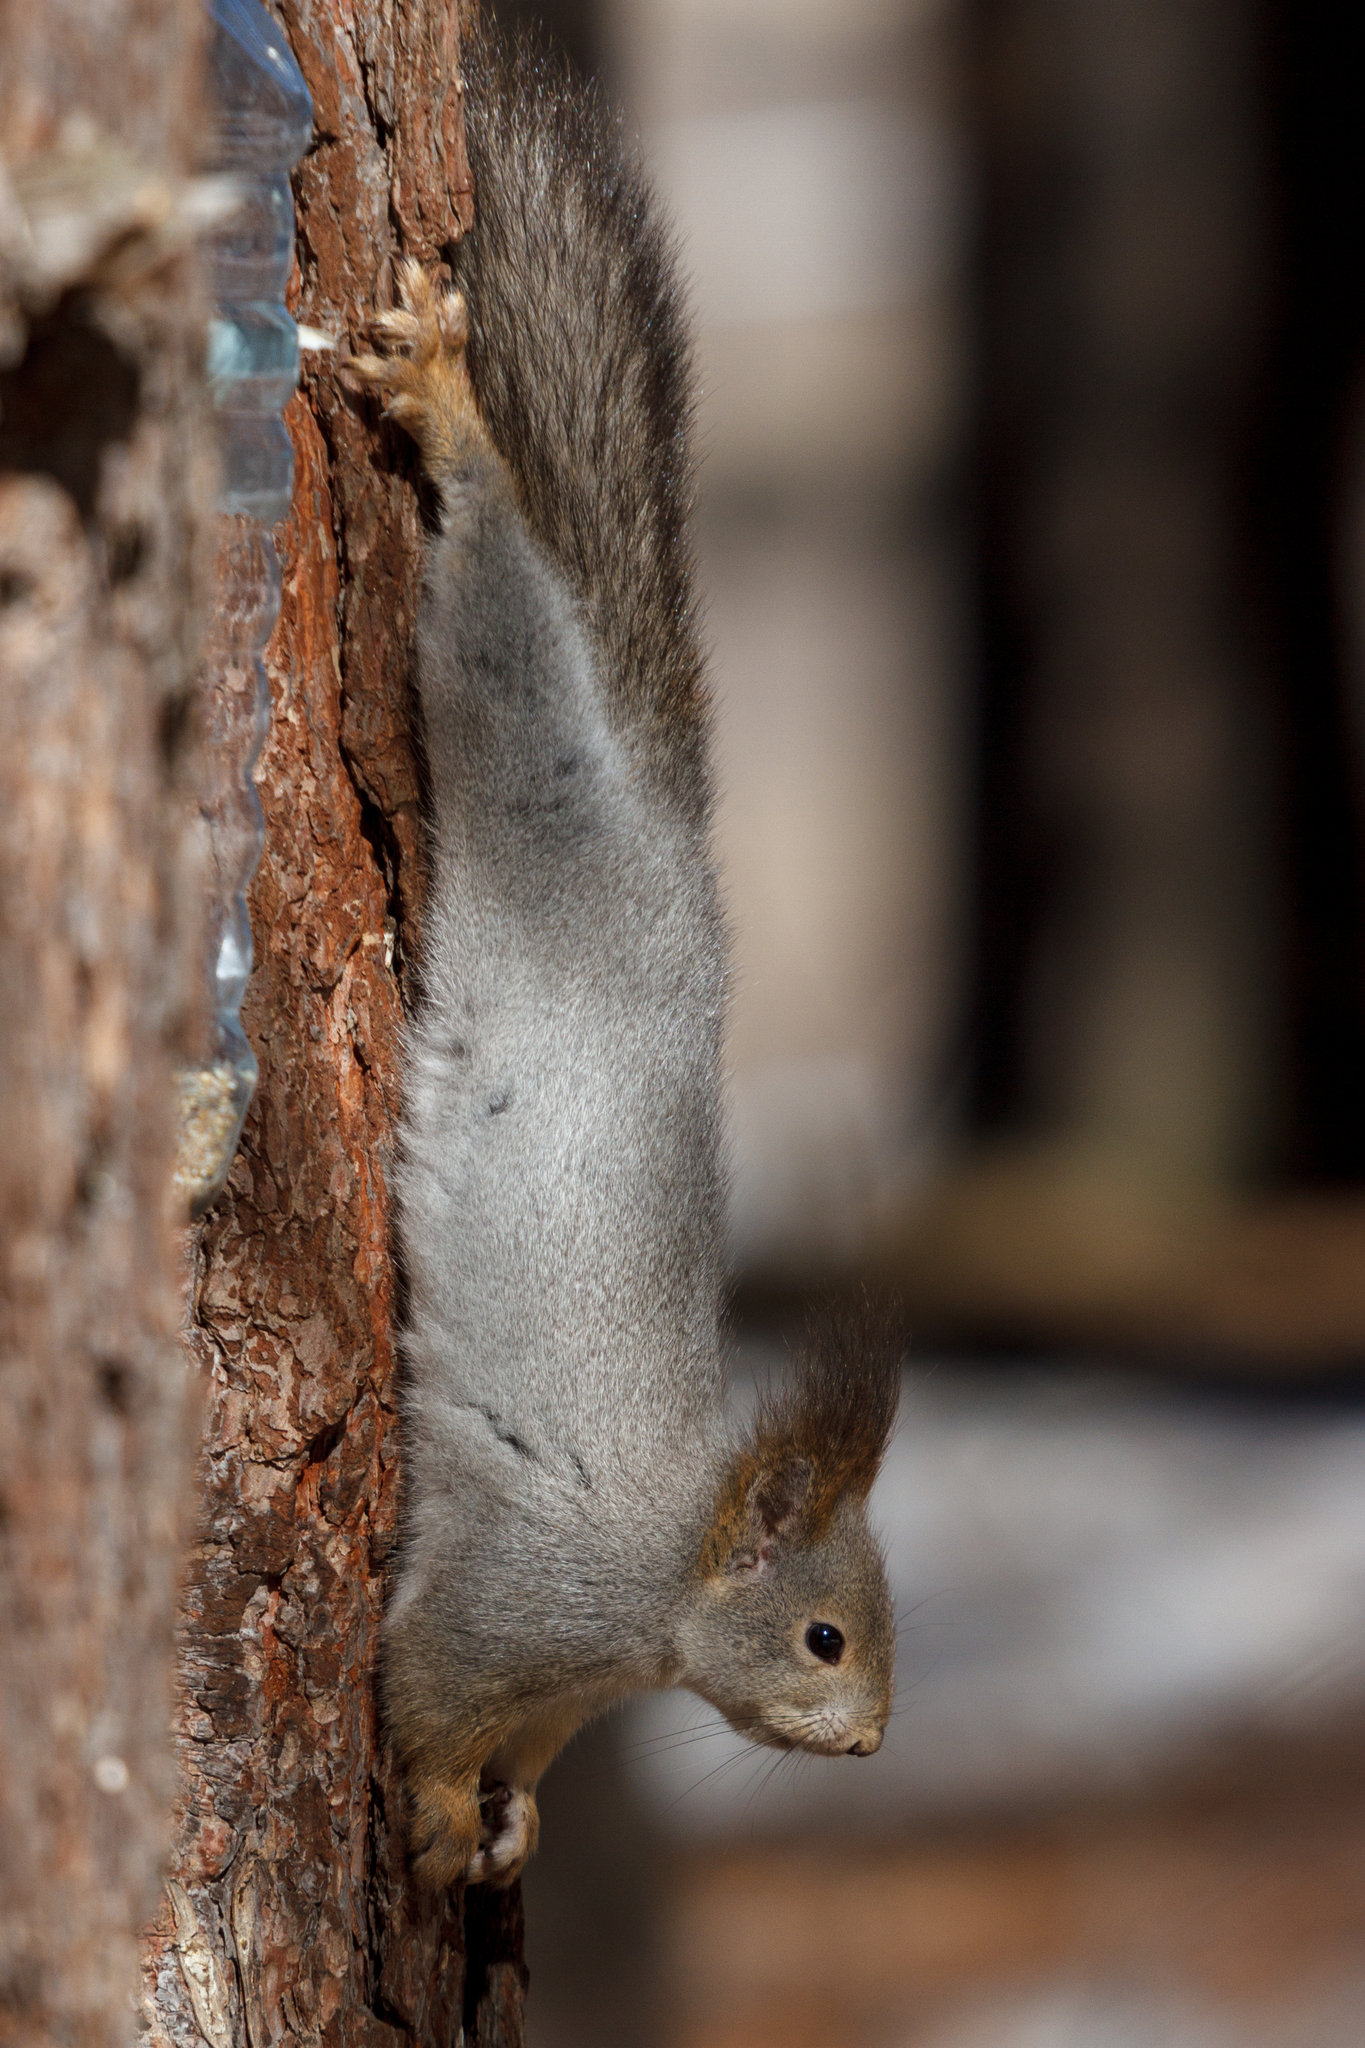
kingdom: Animalia
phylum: Chordata
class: Mammalia
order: Rodentia
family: Sciuridae
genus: Sciurus
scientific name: Sciurus vulgaris
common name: Eurasian red squirrel
